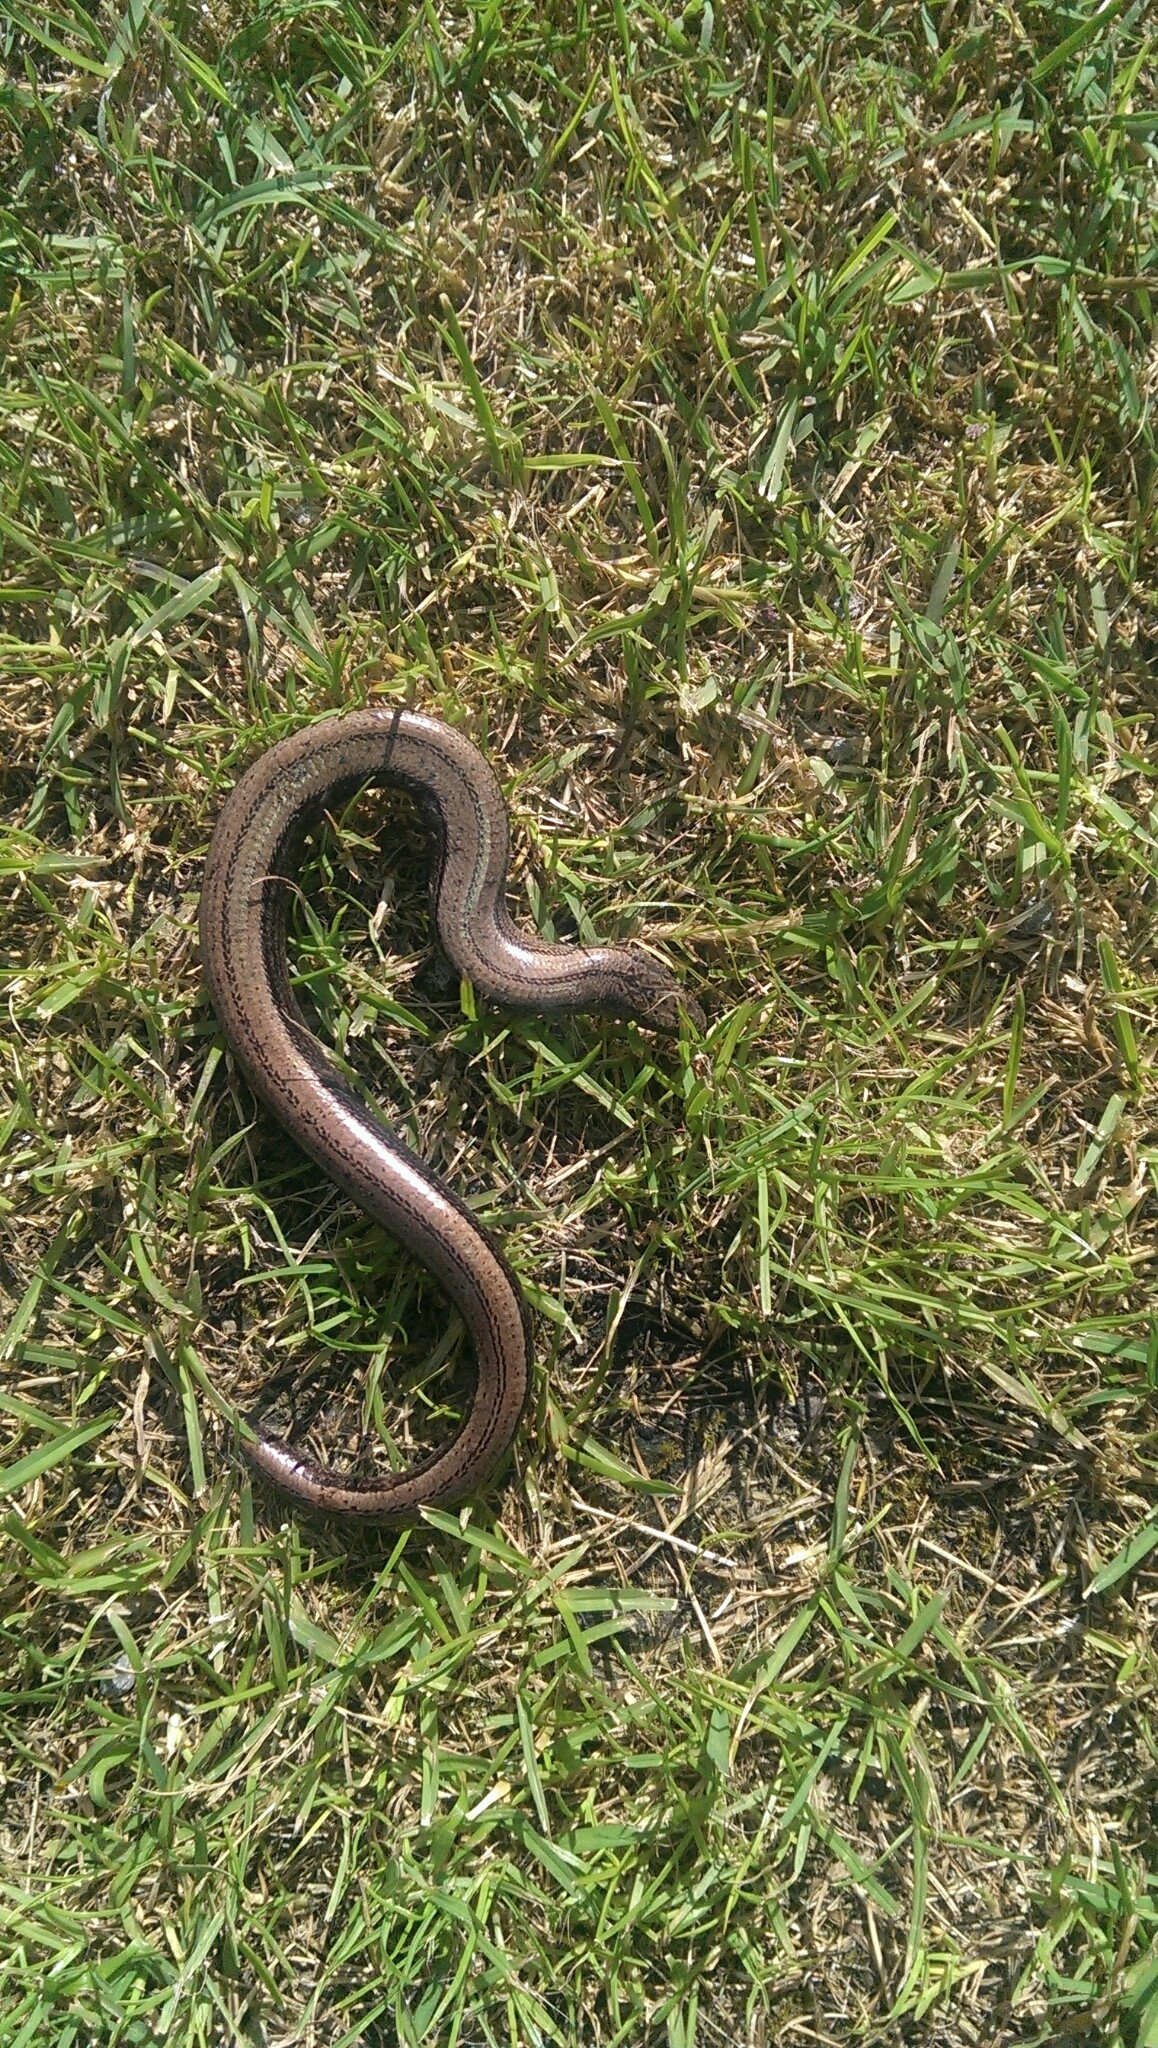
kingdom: Animalia
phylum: Chordata
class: Squamata
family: Anguidae
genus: Anguis
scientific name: Anguis colchica
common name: Slow worm
